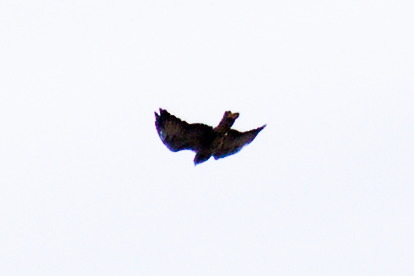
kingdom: Animalia
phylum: Chordata
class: Aves
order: Accipitriformes
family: Accipitridae
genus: Buteo
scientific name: Buteo buteo
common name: Common buzzard
